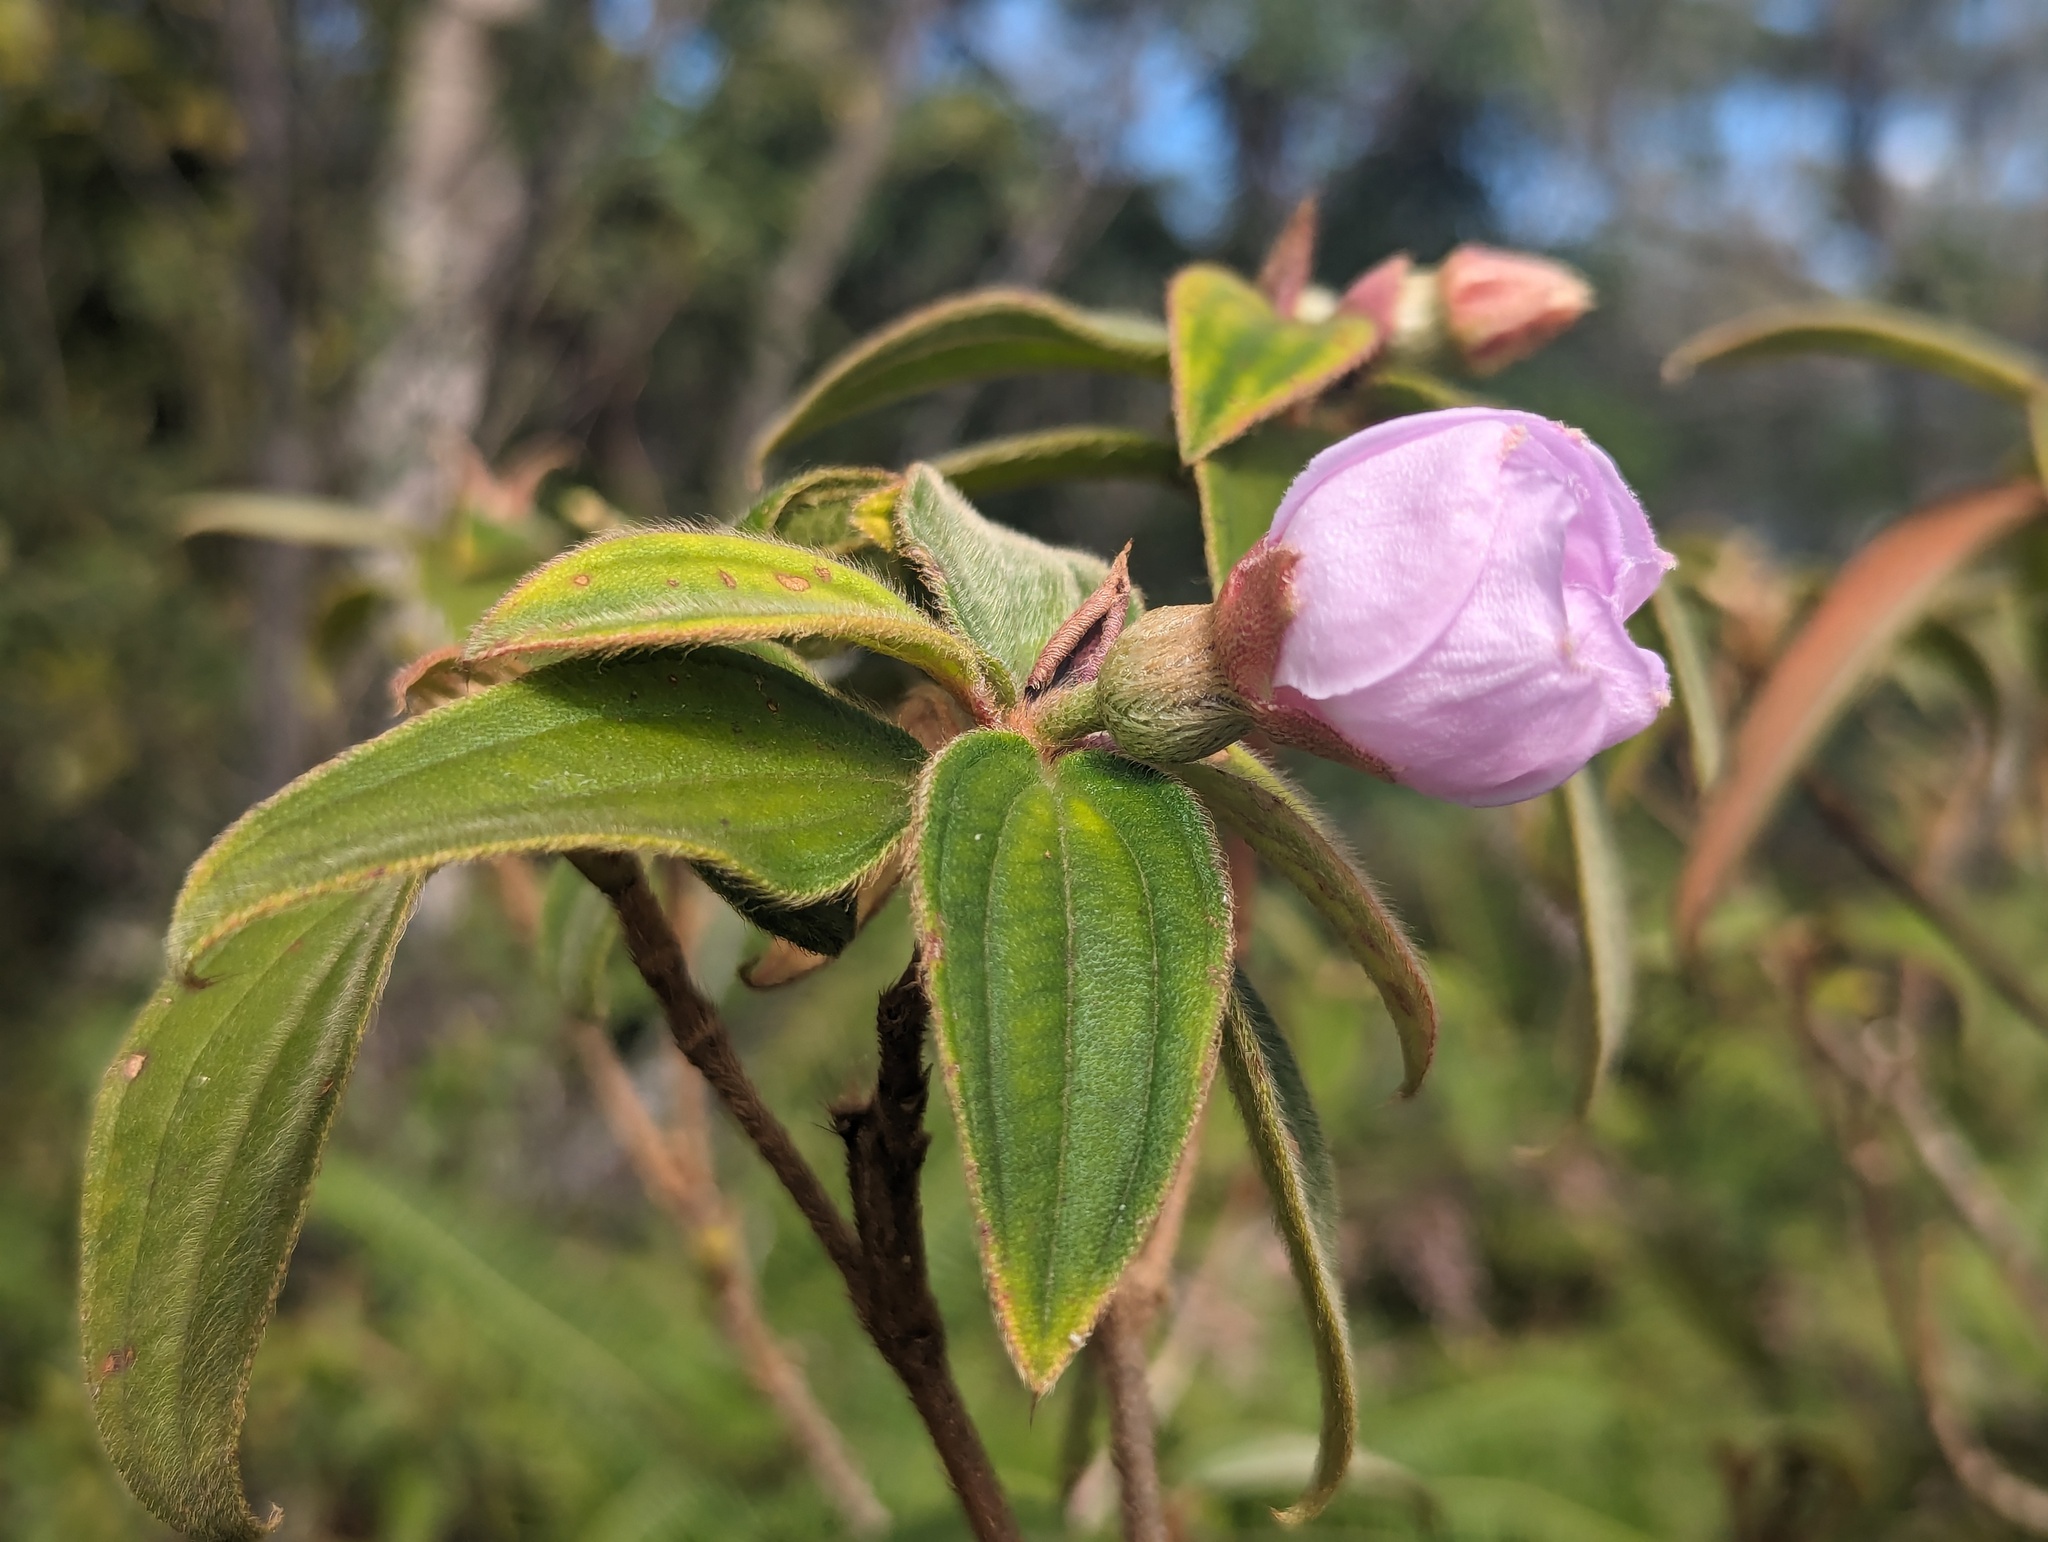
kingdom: Plantae
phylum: Tracheophyta
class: Magnoliopsida
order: Myrtales
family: Melastomataceae
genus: Melastoma
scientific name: Melastoma malabathricum
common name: Indian-rhododendron
